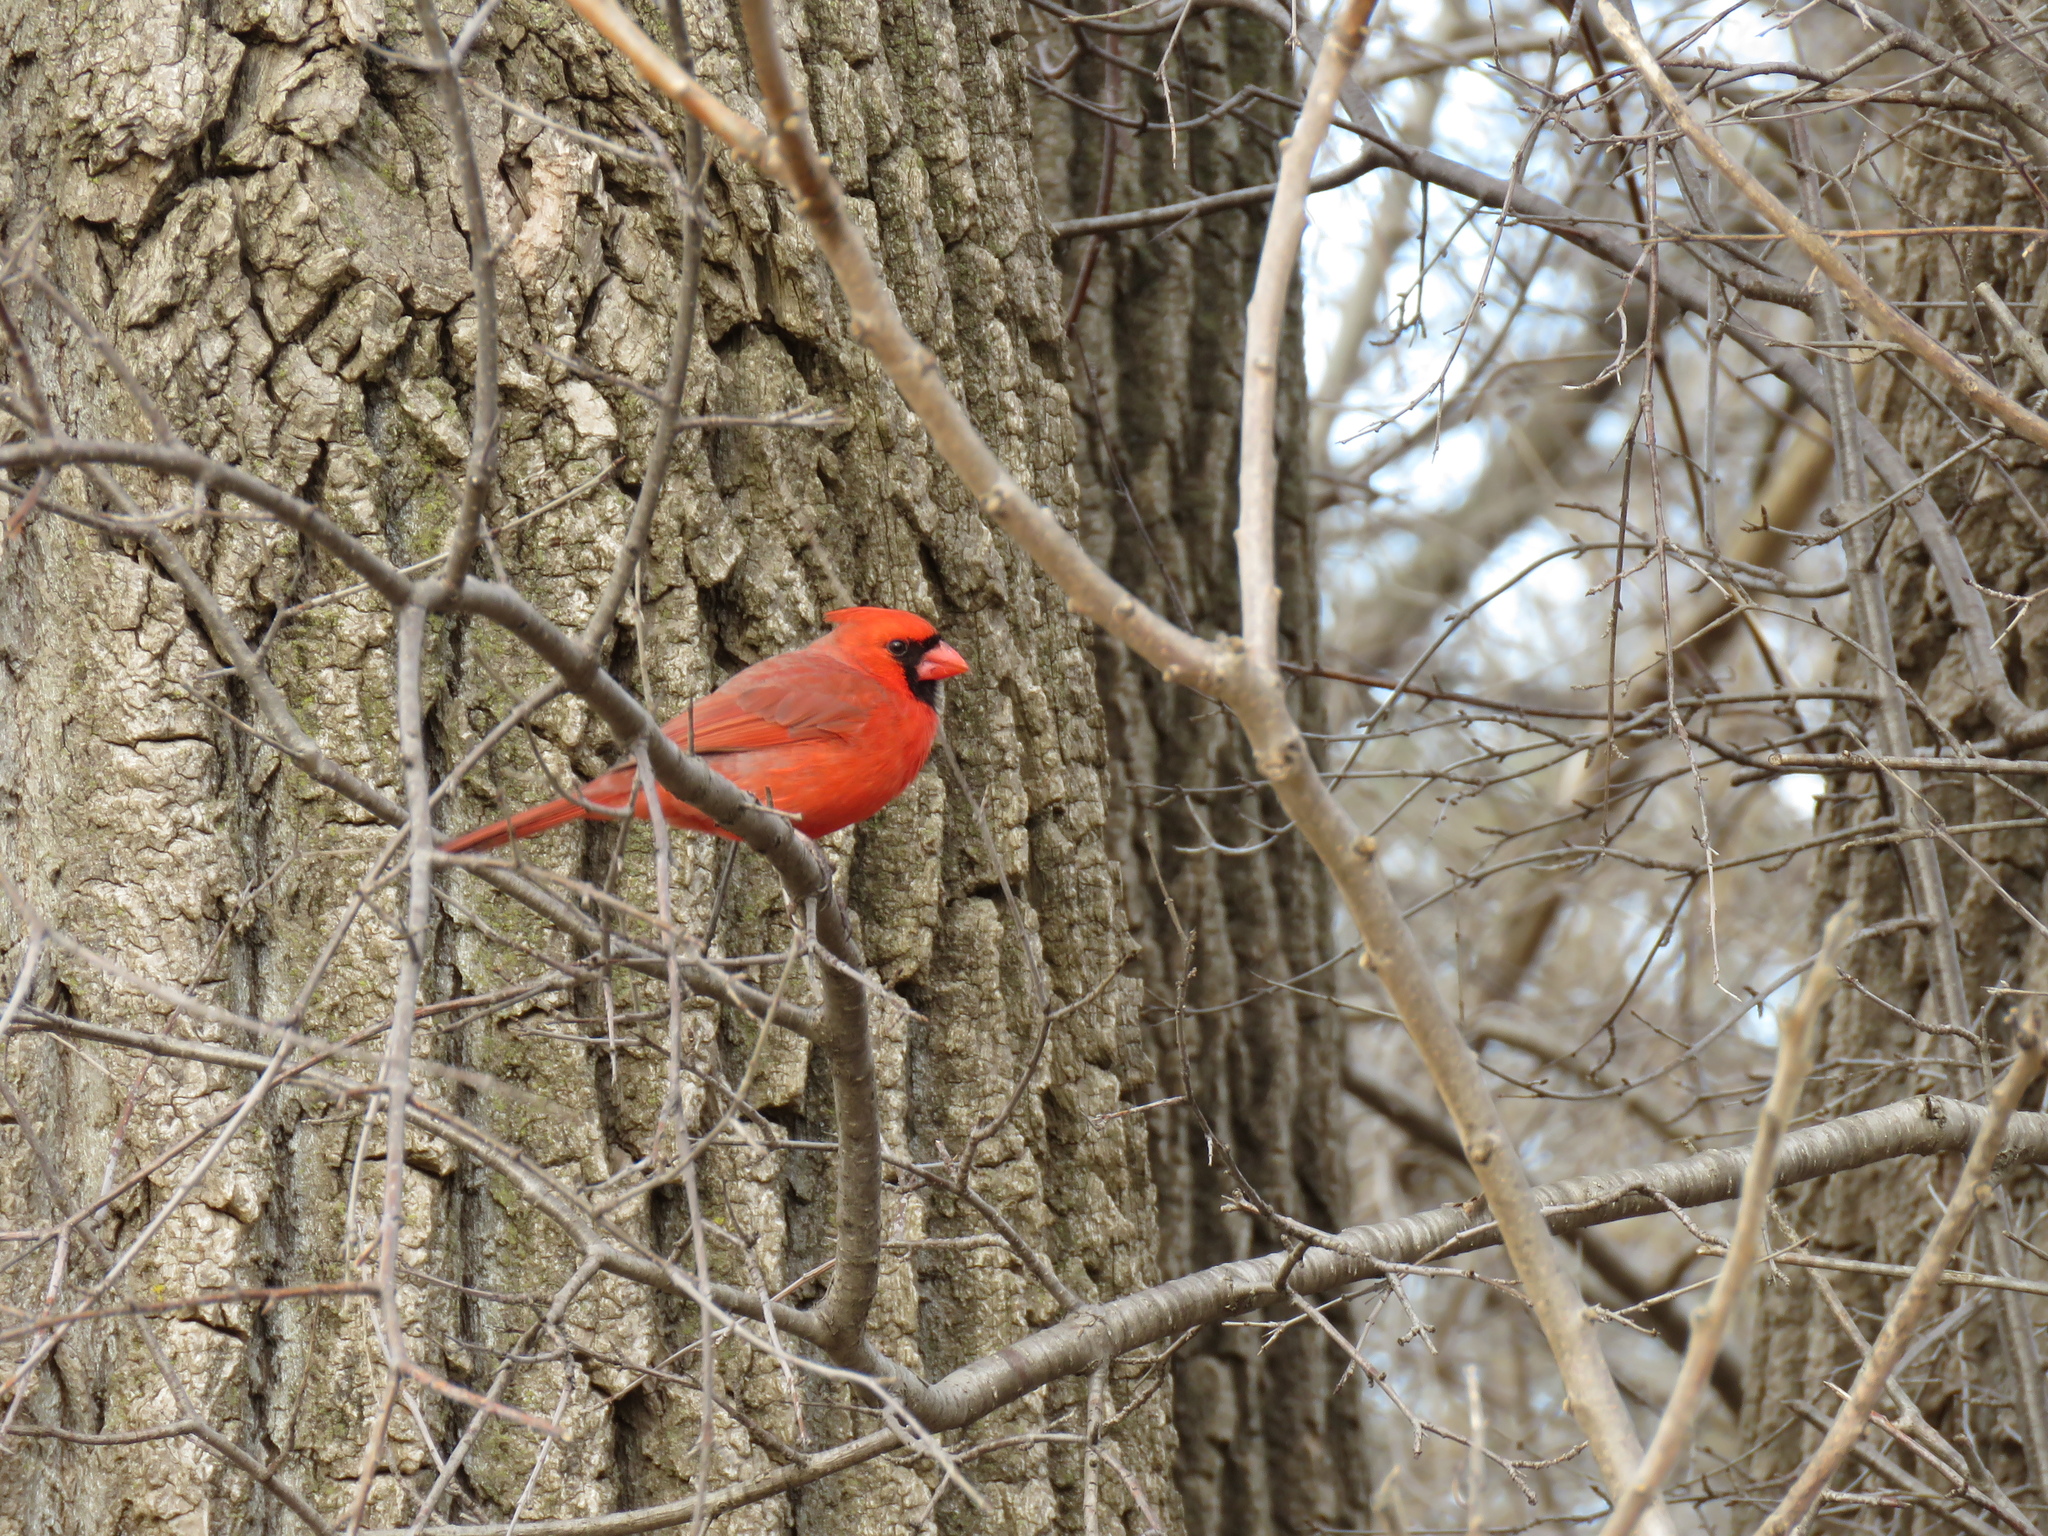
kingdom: Animalia
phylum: Chordata
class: Aves
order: Passeriformes
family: Cardinalidae
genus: Cardinalis
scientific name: Cardinalis cardinalis
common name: Northern cardinal
